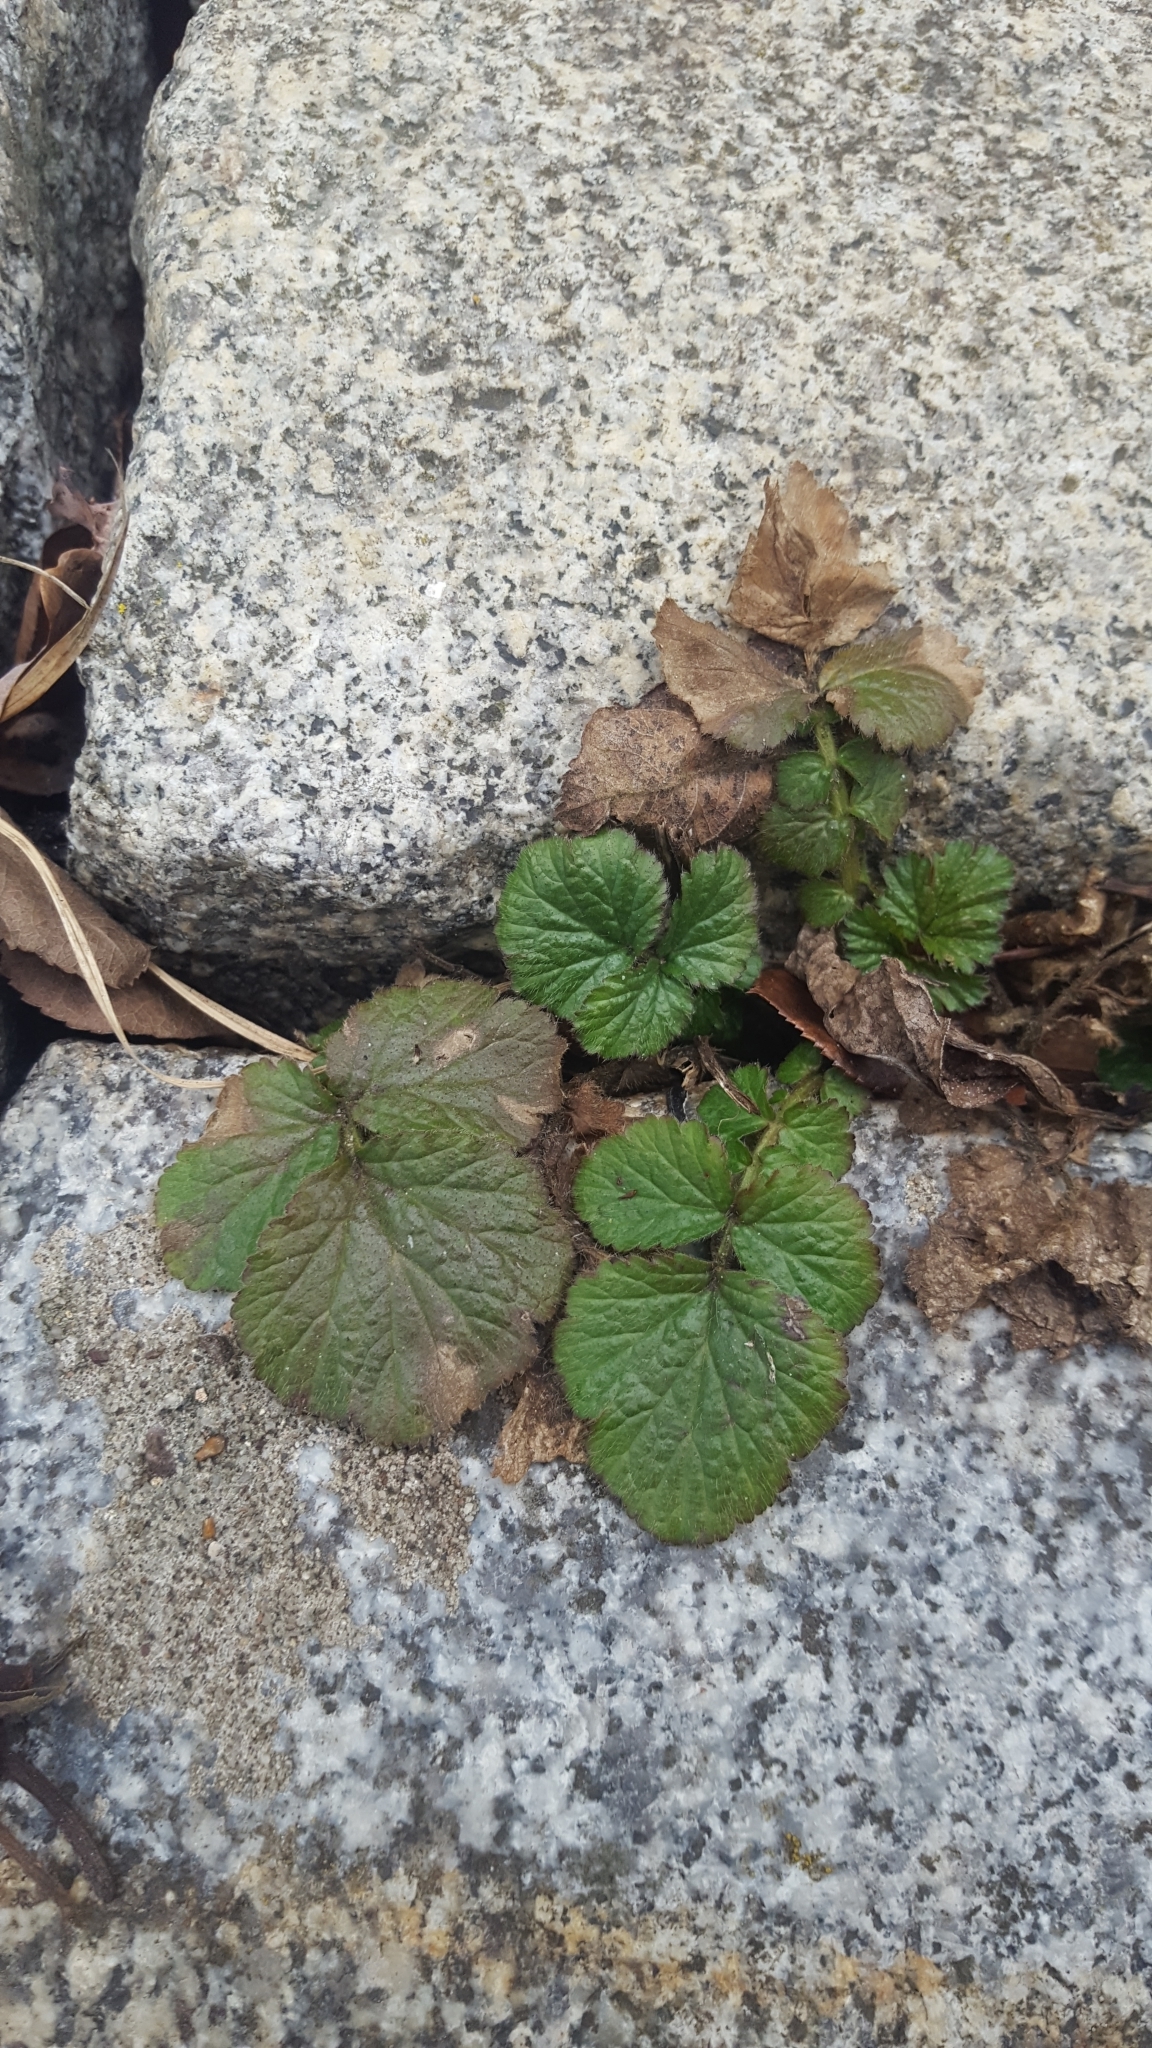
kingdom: Plantae
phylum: Tracheophyta
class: Magnoliopsida
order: Rosales
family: Rosaceae
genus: Geum
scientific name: Geum urbanum
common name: Wood avens
